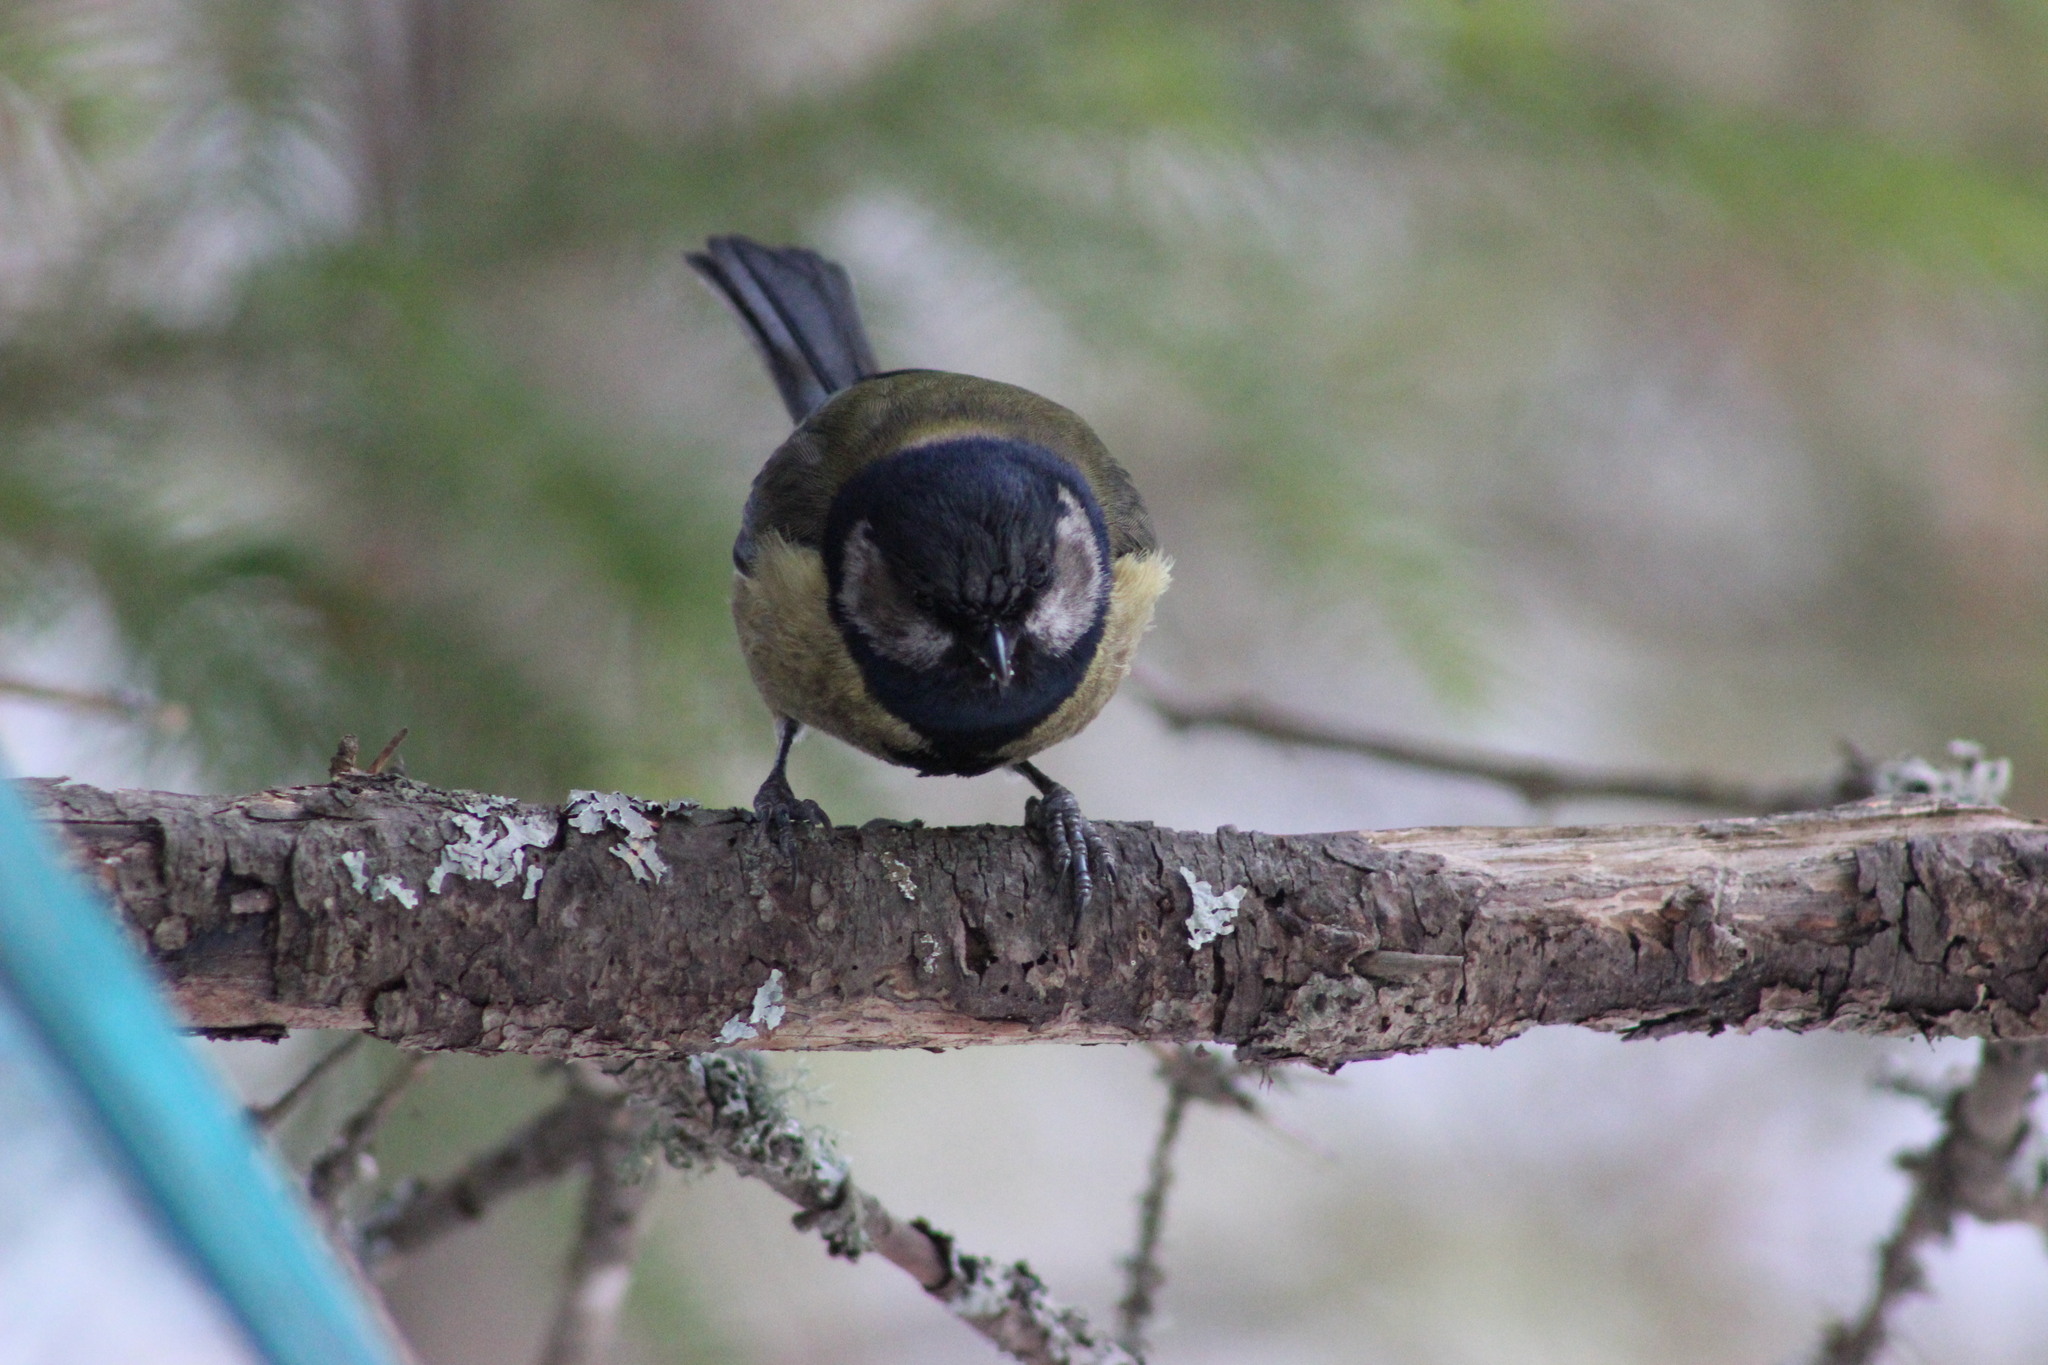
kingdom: Animalia
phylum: Chordata
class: Aves
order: Passeriformes
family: Paridae
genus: Parus
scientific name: Parus major
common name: Great tit
